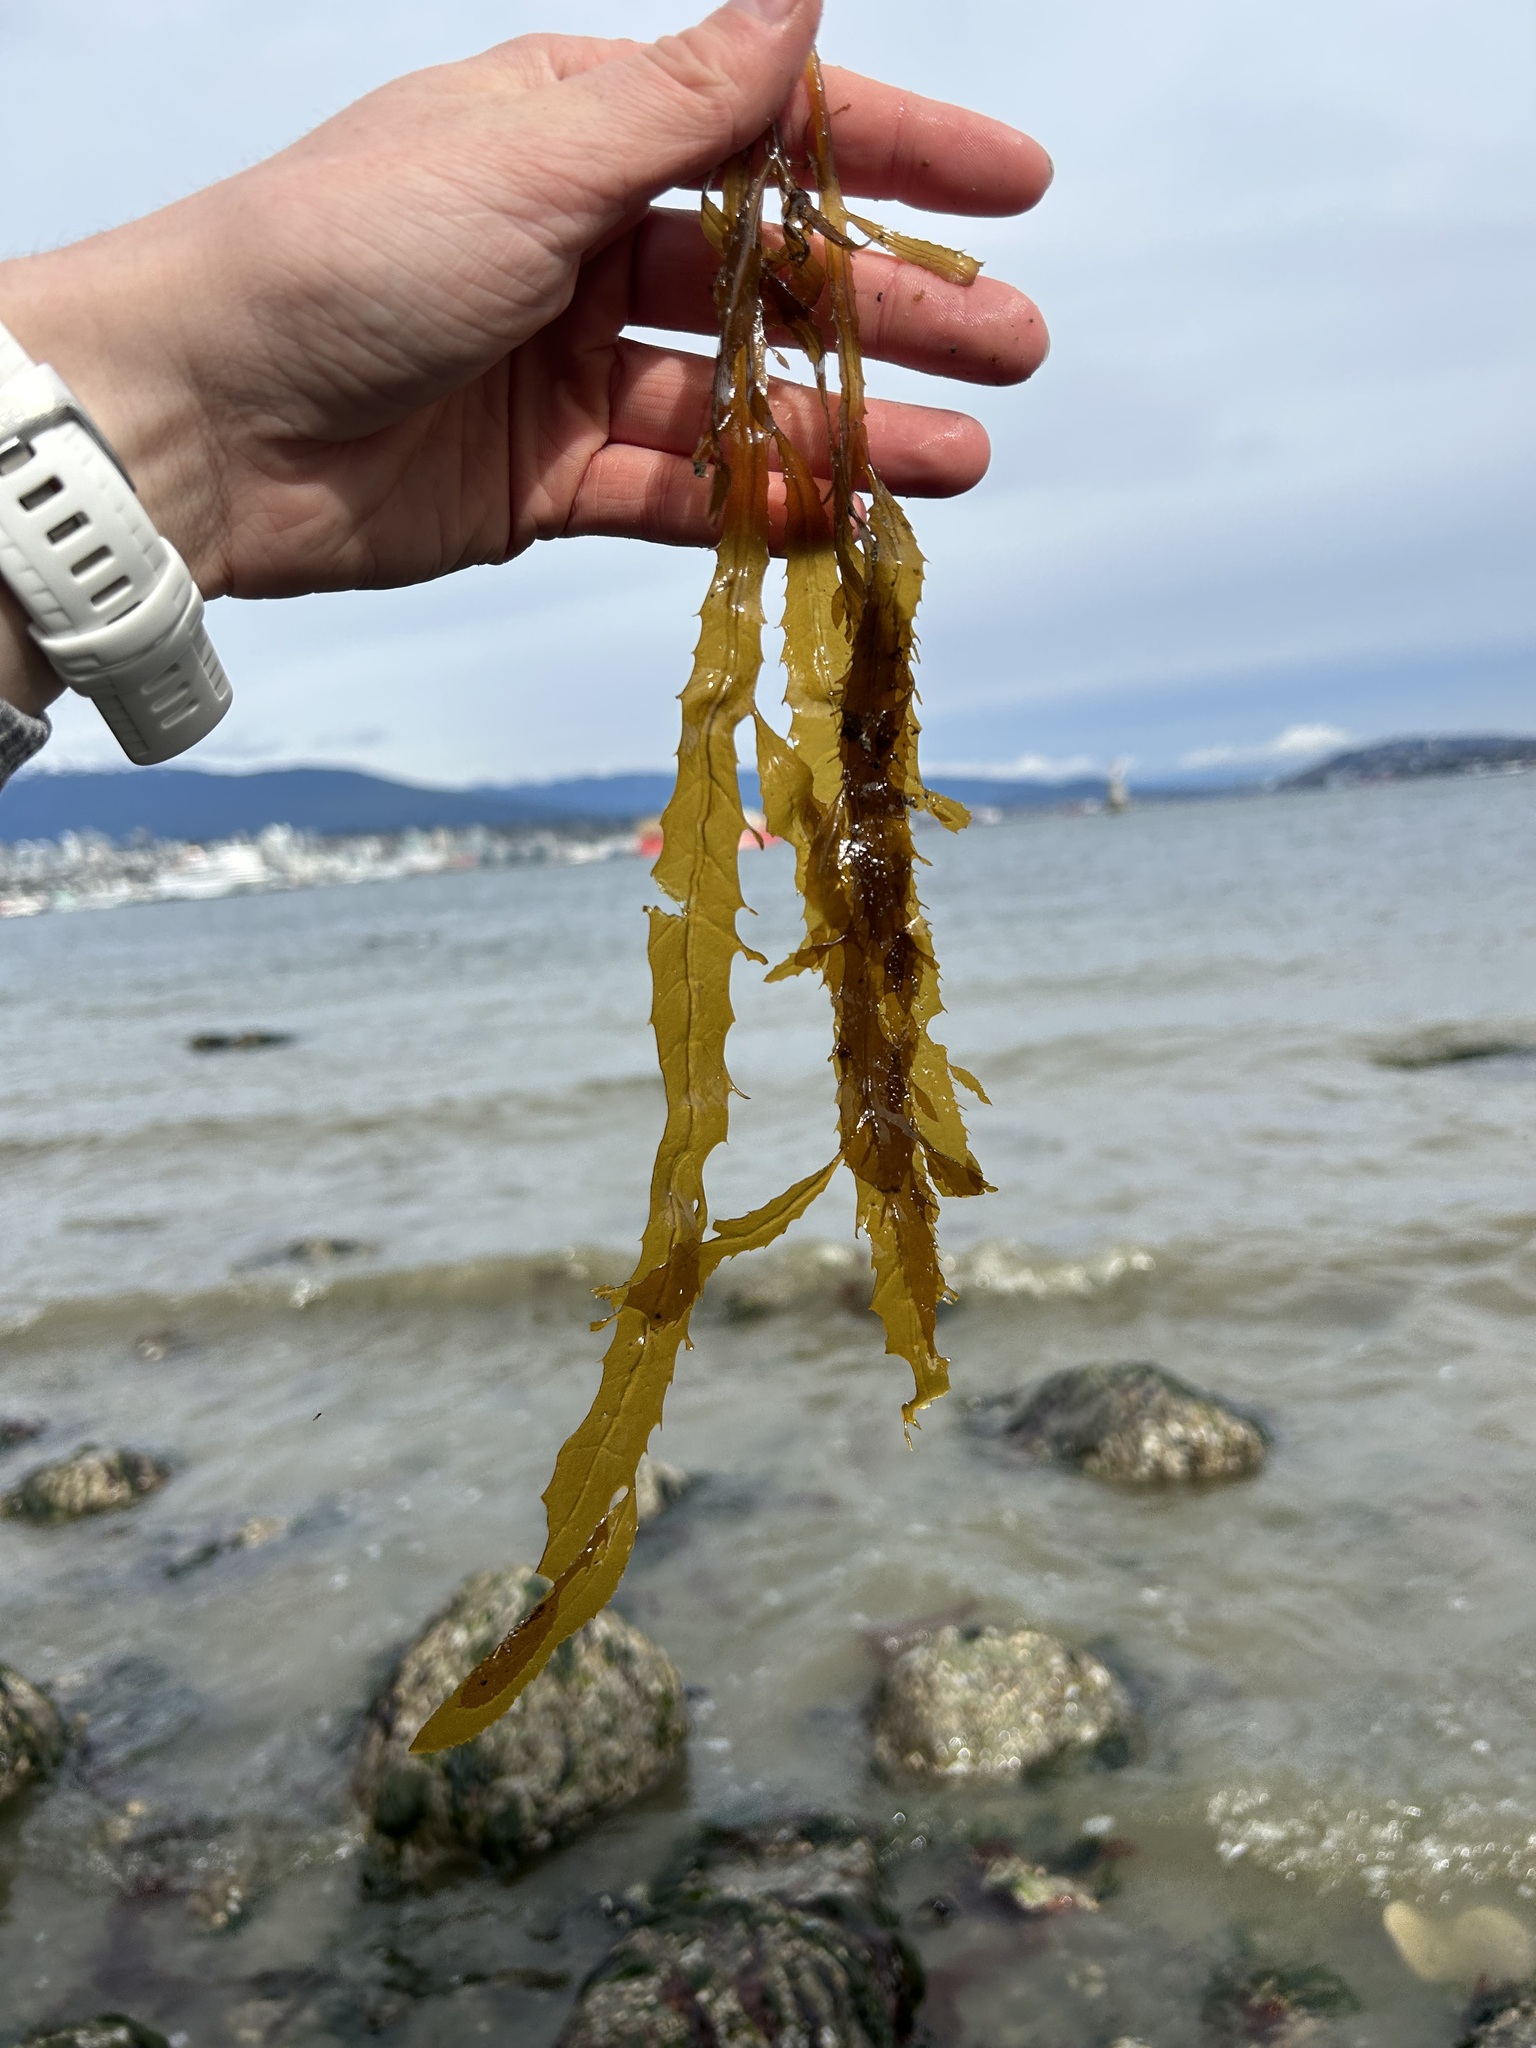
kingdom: Chromista
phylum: Ochrophyta
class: Phaeophyceae
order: Desmarestiales
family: Desmarestiaceae
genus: Desmarestia
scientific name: Desmarestia ligulata
